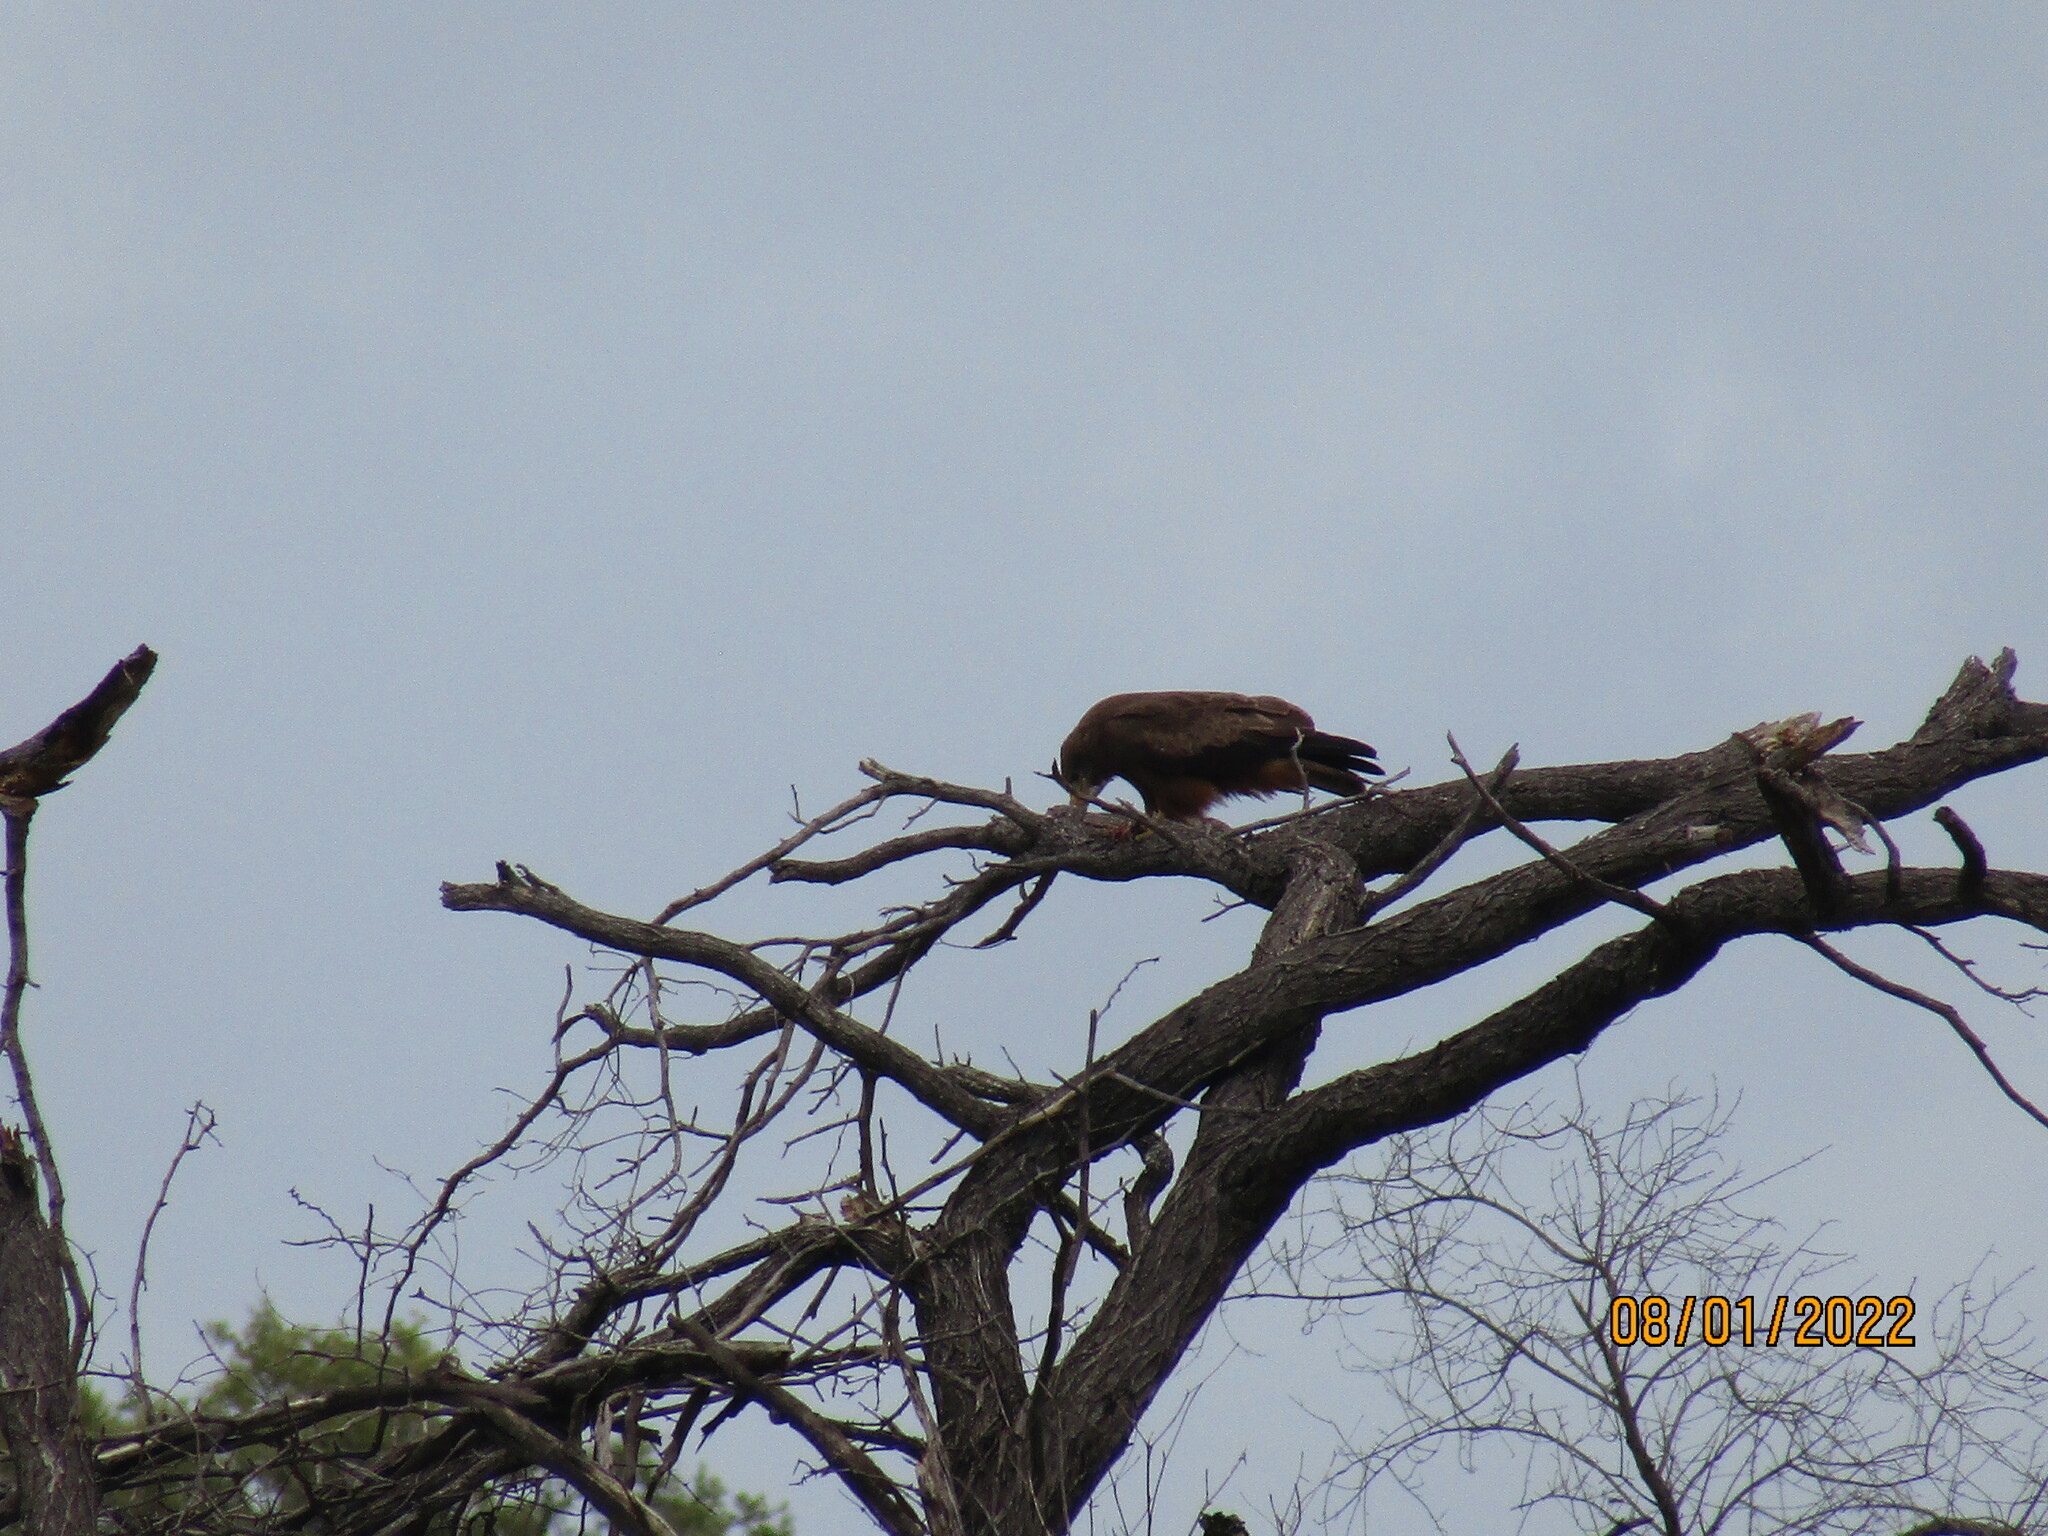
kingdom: Animalia
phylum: Chordata
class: Aves
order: Accipitriformes
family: Accipitridae
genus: Milvus
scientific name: Milvus migrans
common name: Black kite
